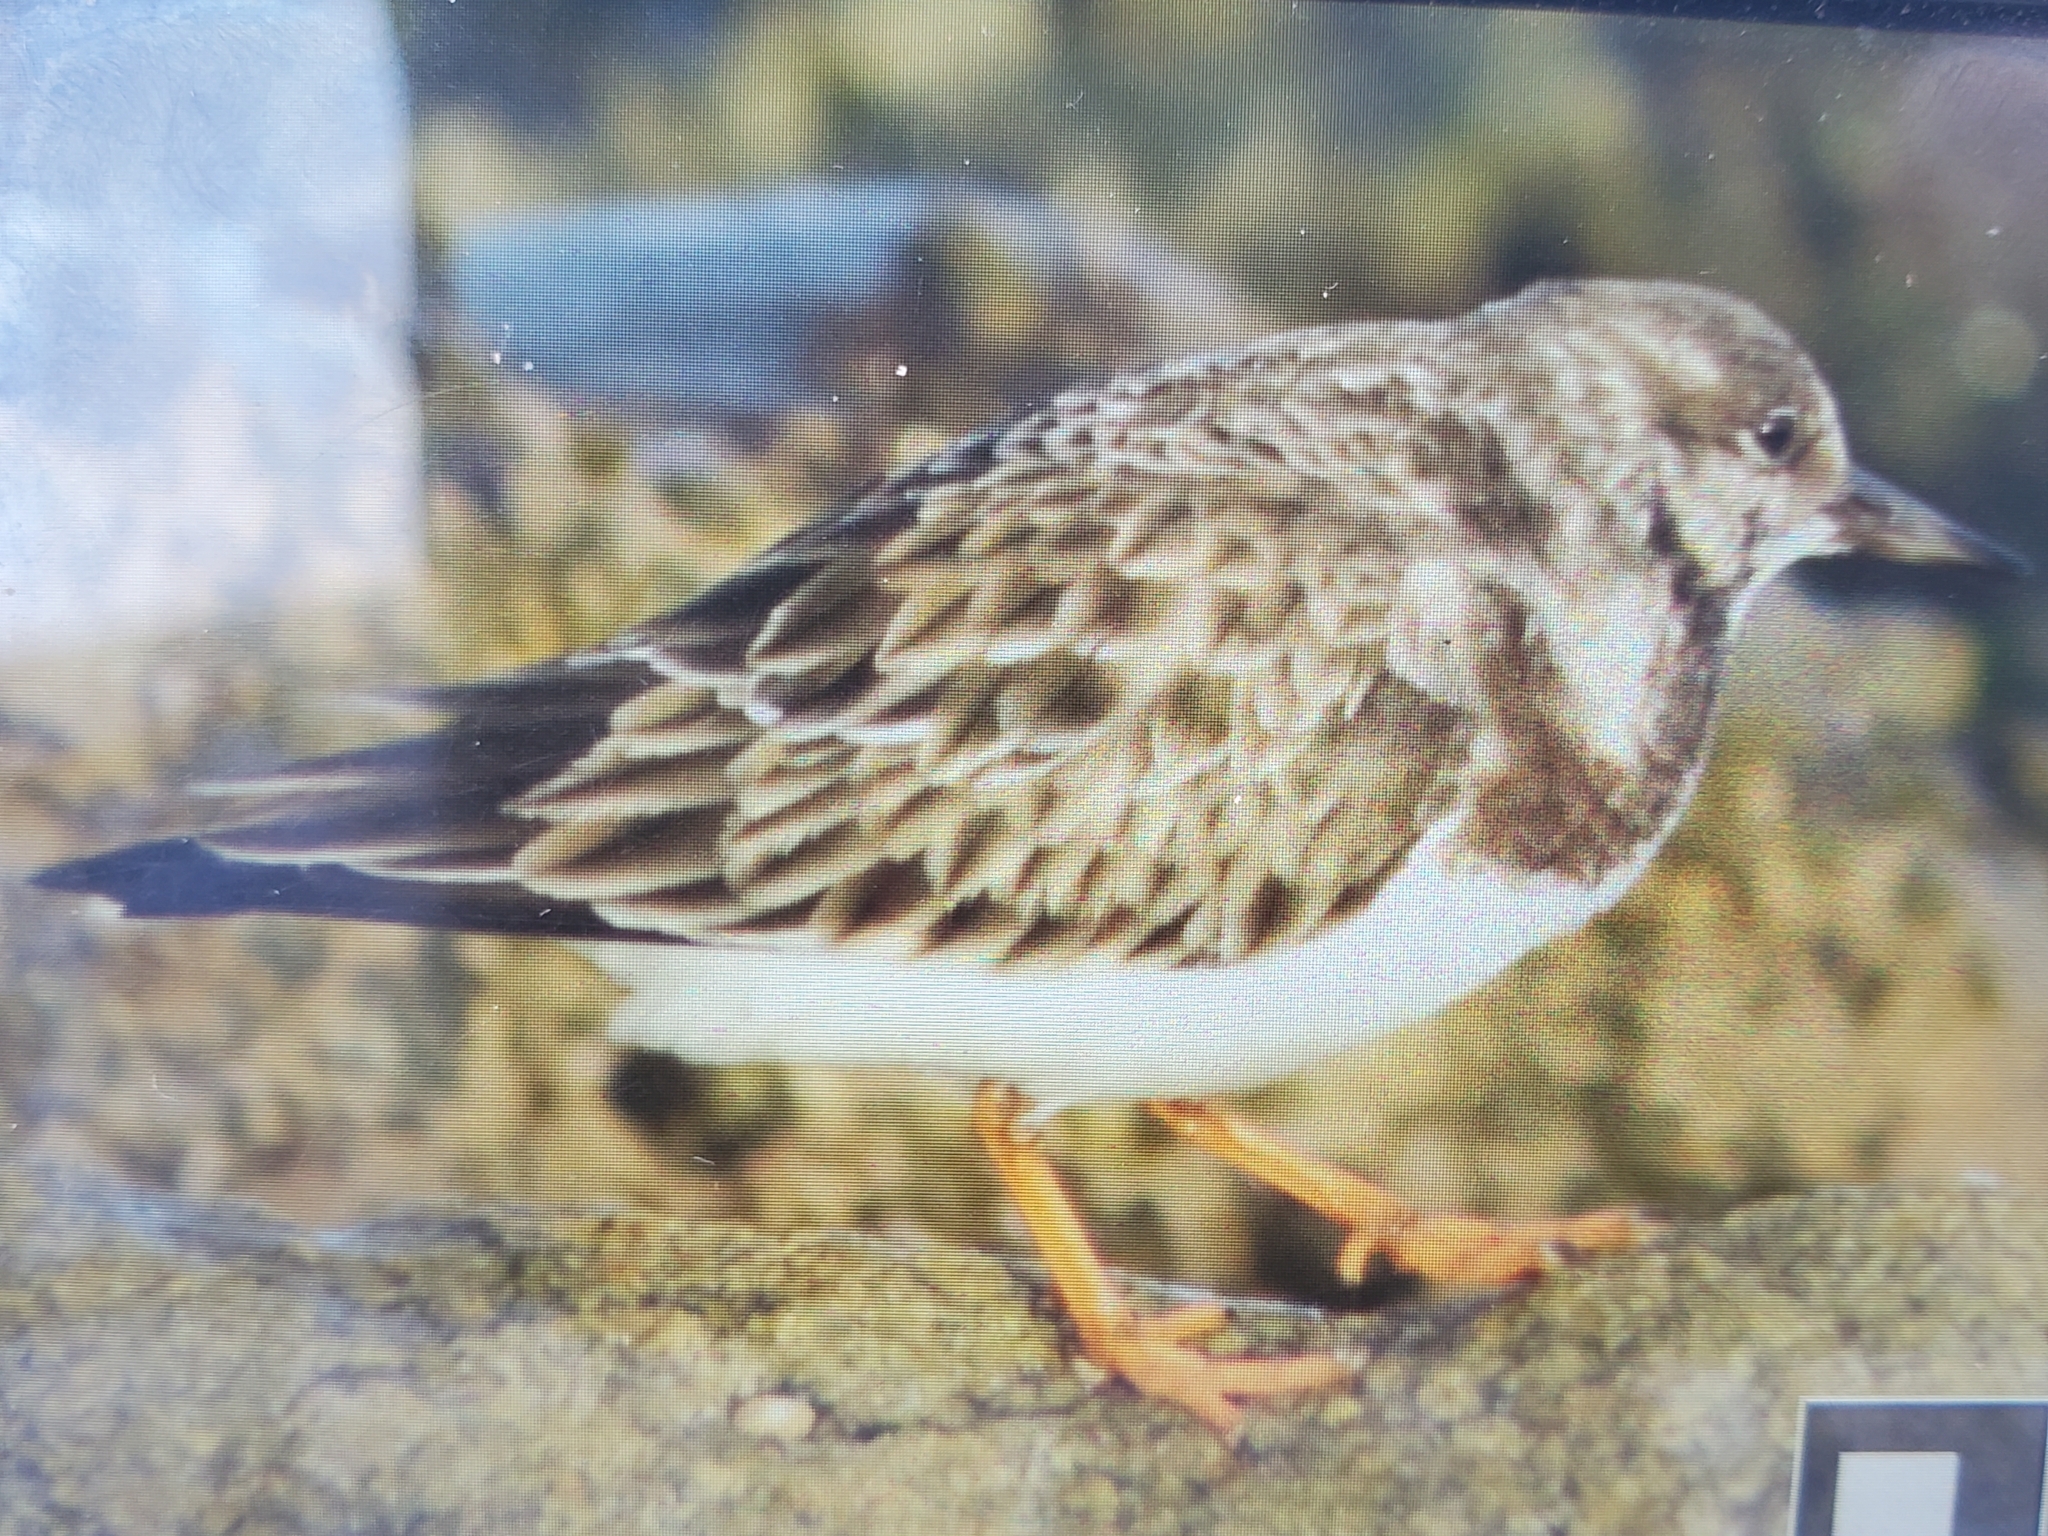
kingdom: Animalia
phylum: Chordata
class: Aves
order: Charadriiformes
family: Scolopacidae
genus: Arenaria
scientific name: Arenaria interpres
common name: Ruddy turnstone
